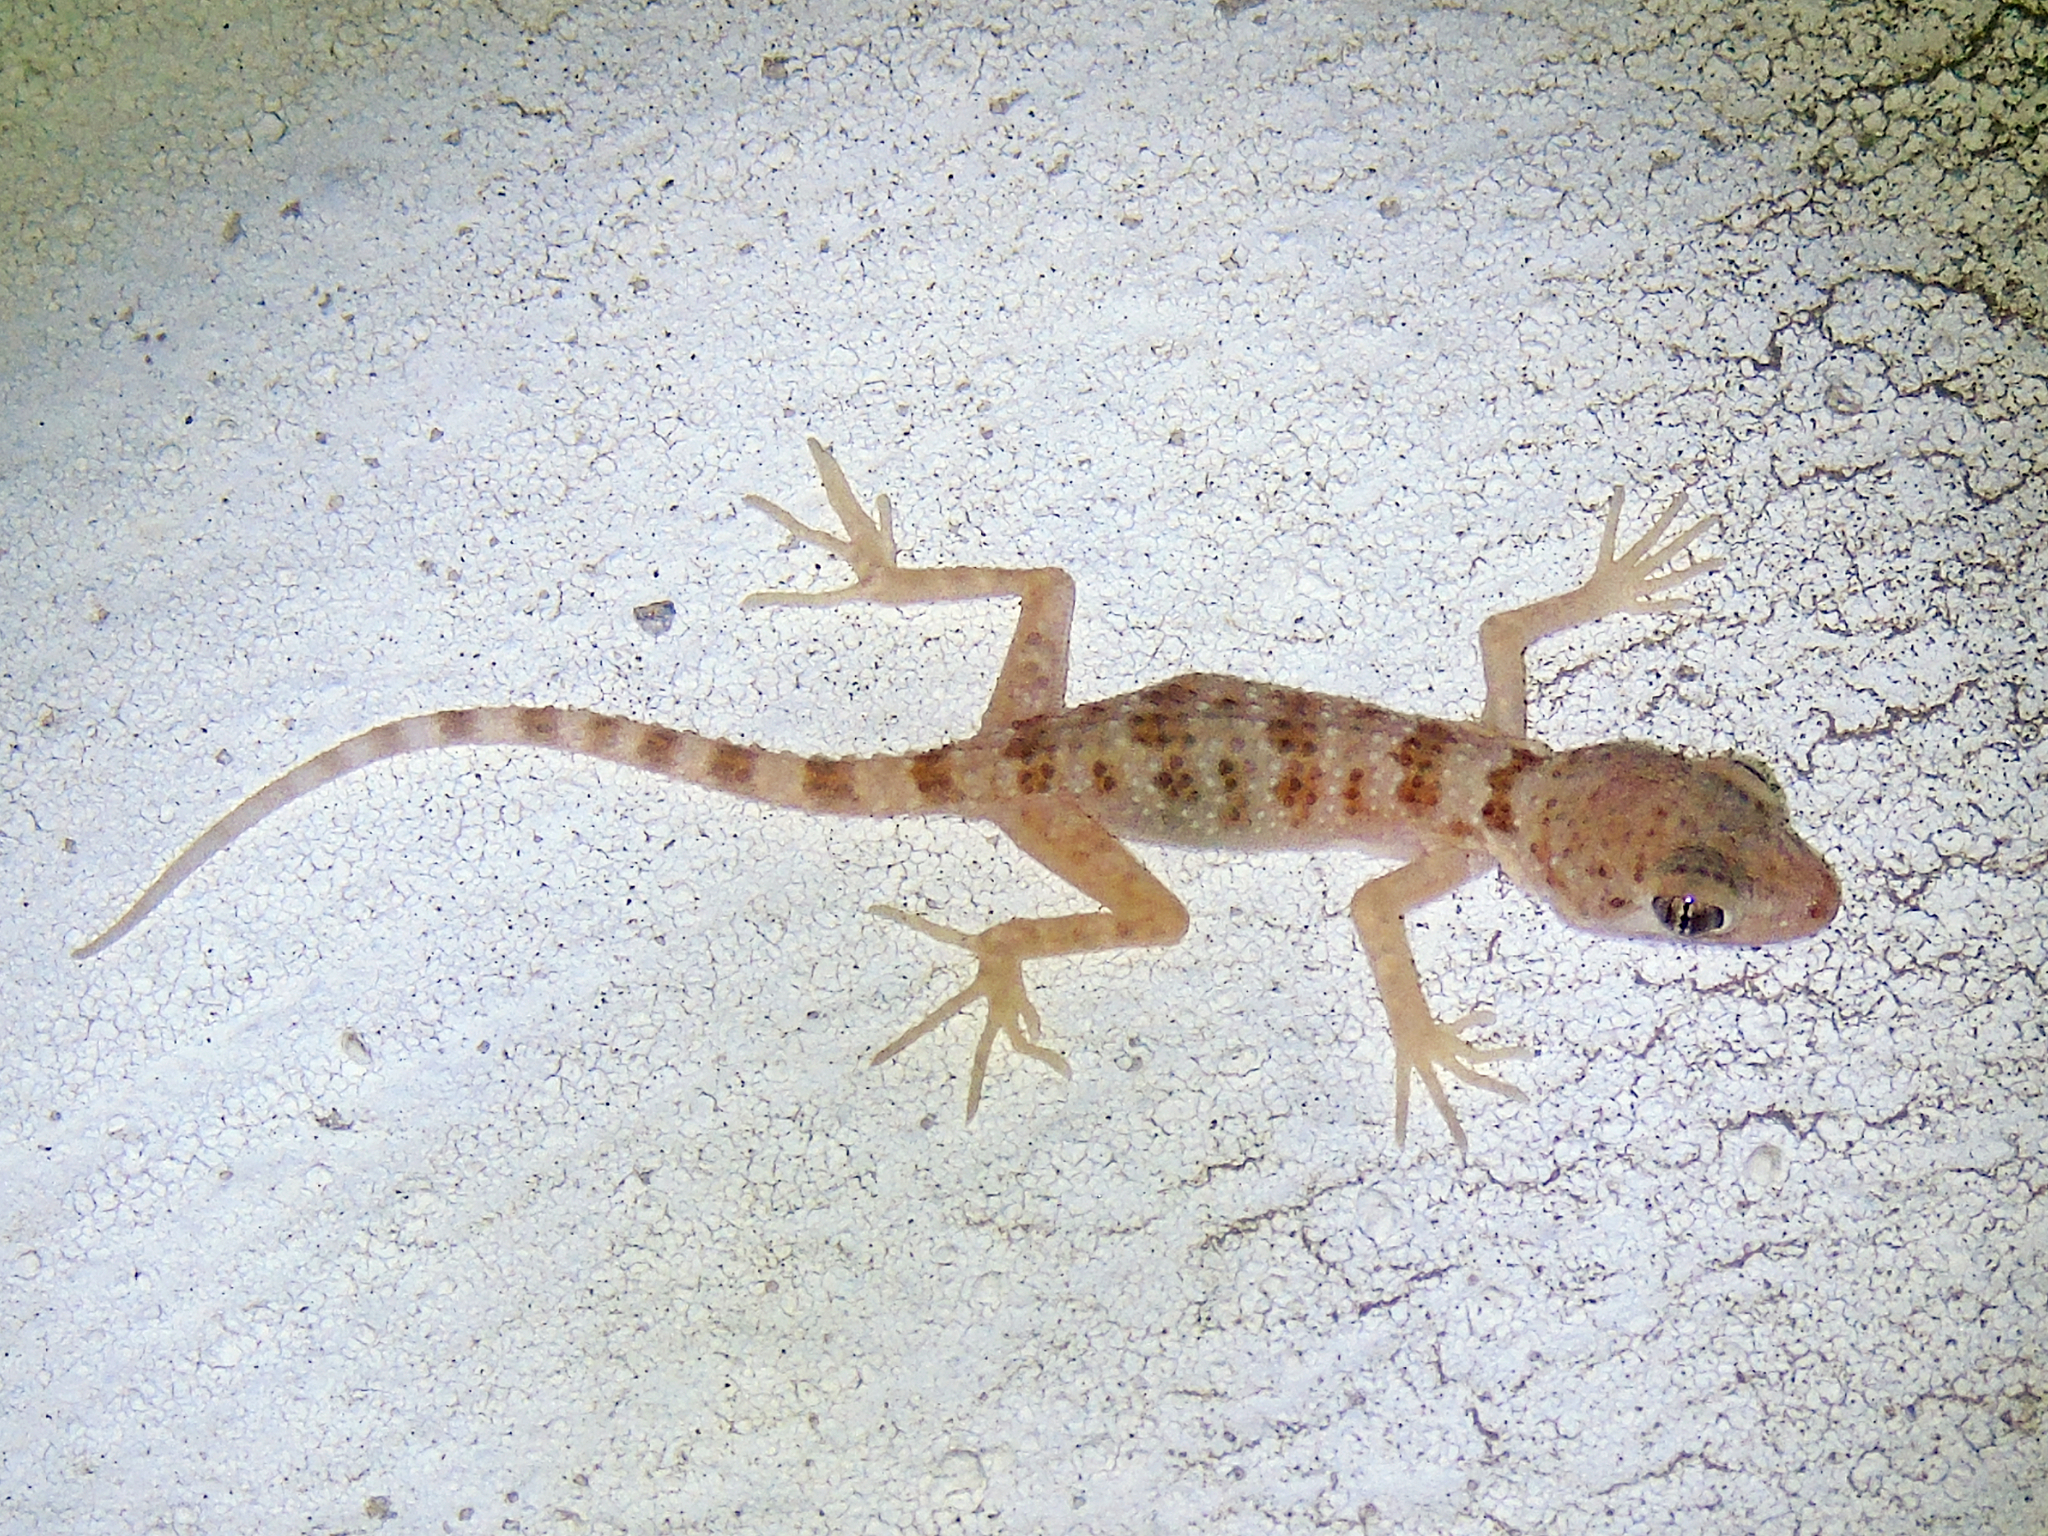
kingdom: Animalia
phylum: Chordata
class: Squamata
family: Gekkonidae
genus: Tenuidactylus
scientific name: Tenuidactylus bogdanovi
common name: Bogdanov’s thin-toed gecko
